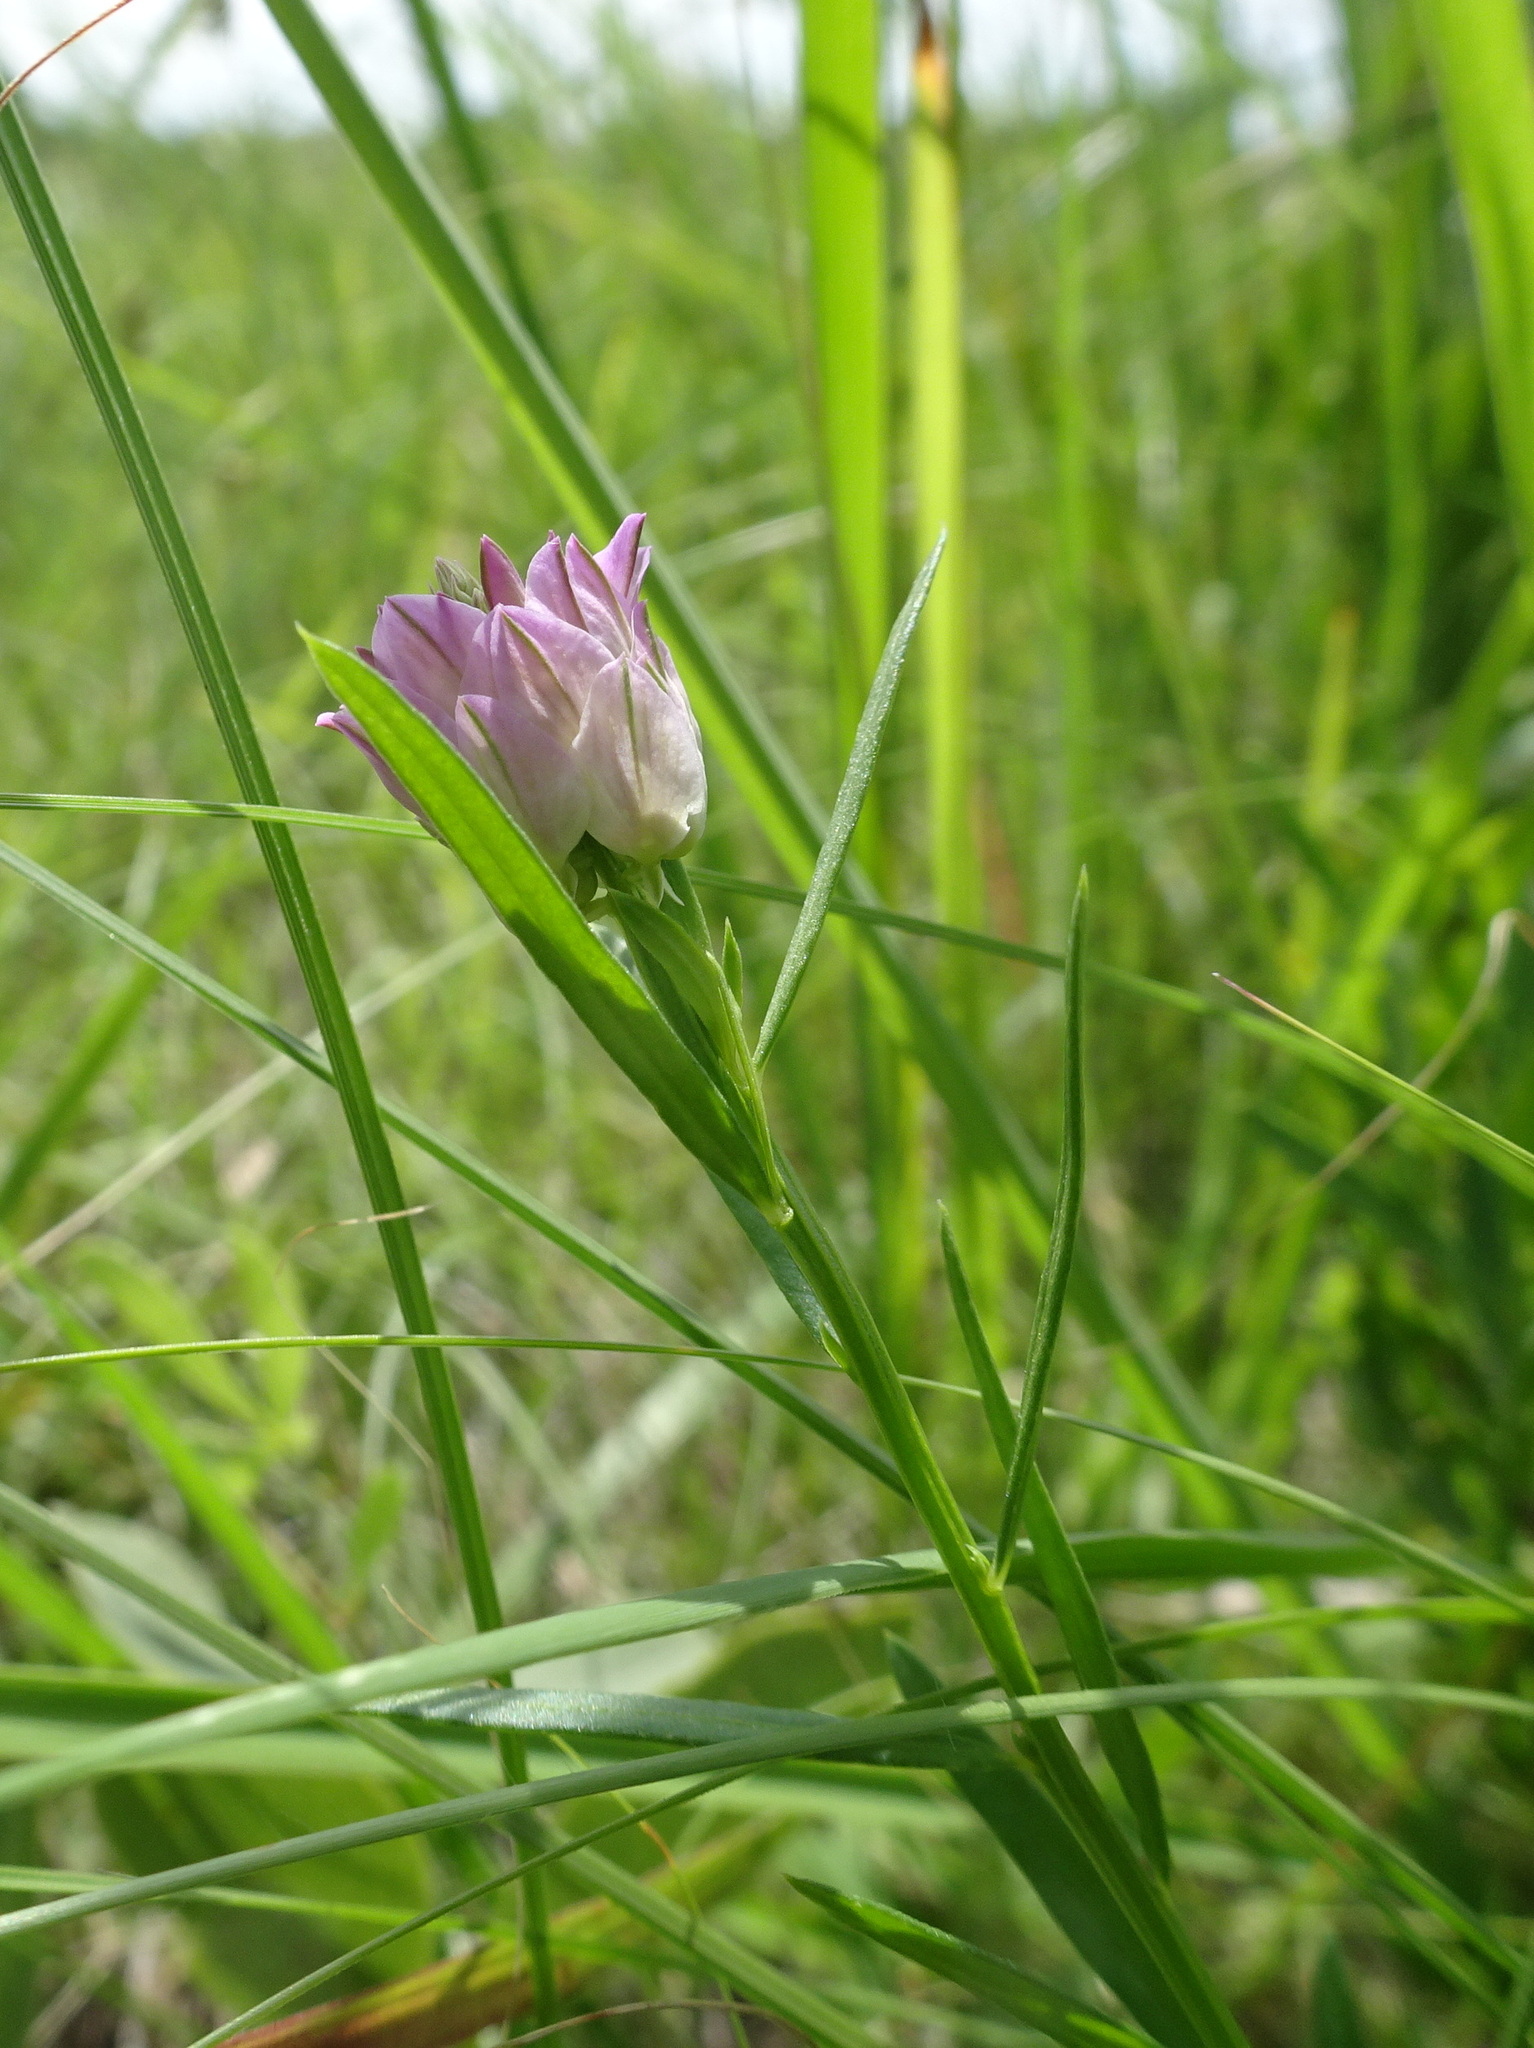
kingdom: Plantae
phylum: Tracheophyta
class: Magnoliopsida
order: Fabales
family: Polygalaceae
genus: Polygala
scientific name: Polygala sanguinea
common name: Blood milkwort
